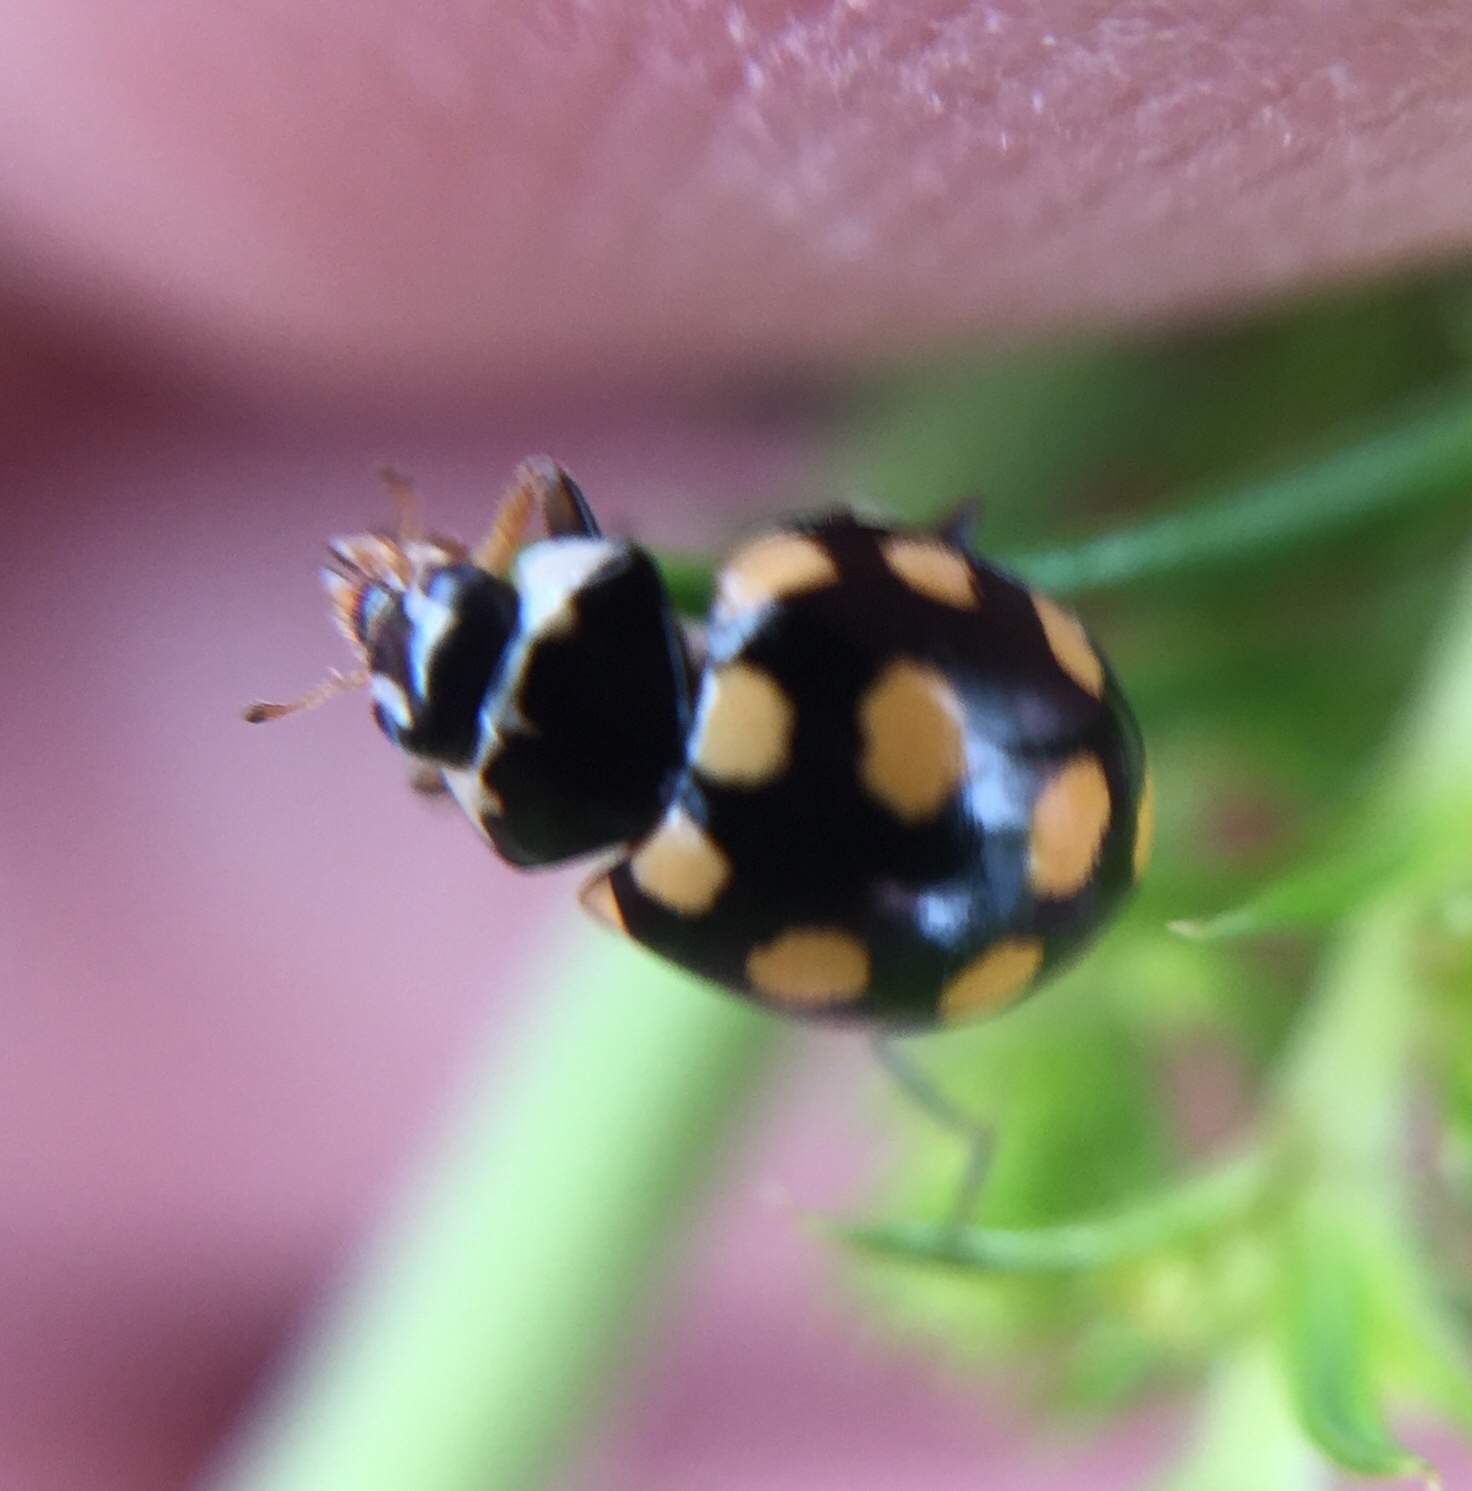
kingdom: Animalia
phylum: Arthropoda
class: Insecta
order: Coleoptera
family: Coccinellidae
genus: Coccinula
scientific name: Coccinula quatuordecimpustulata
